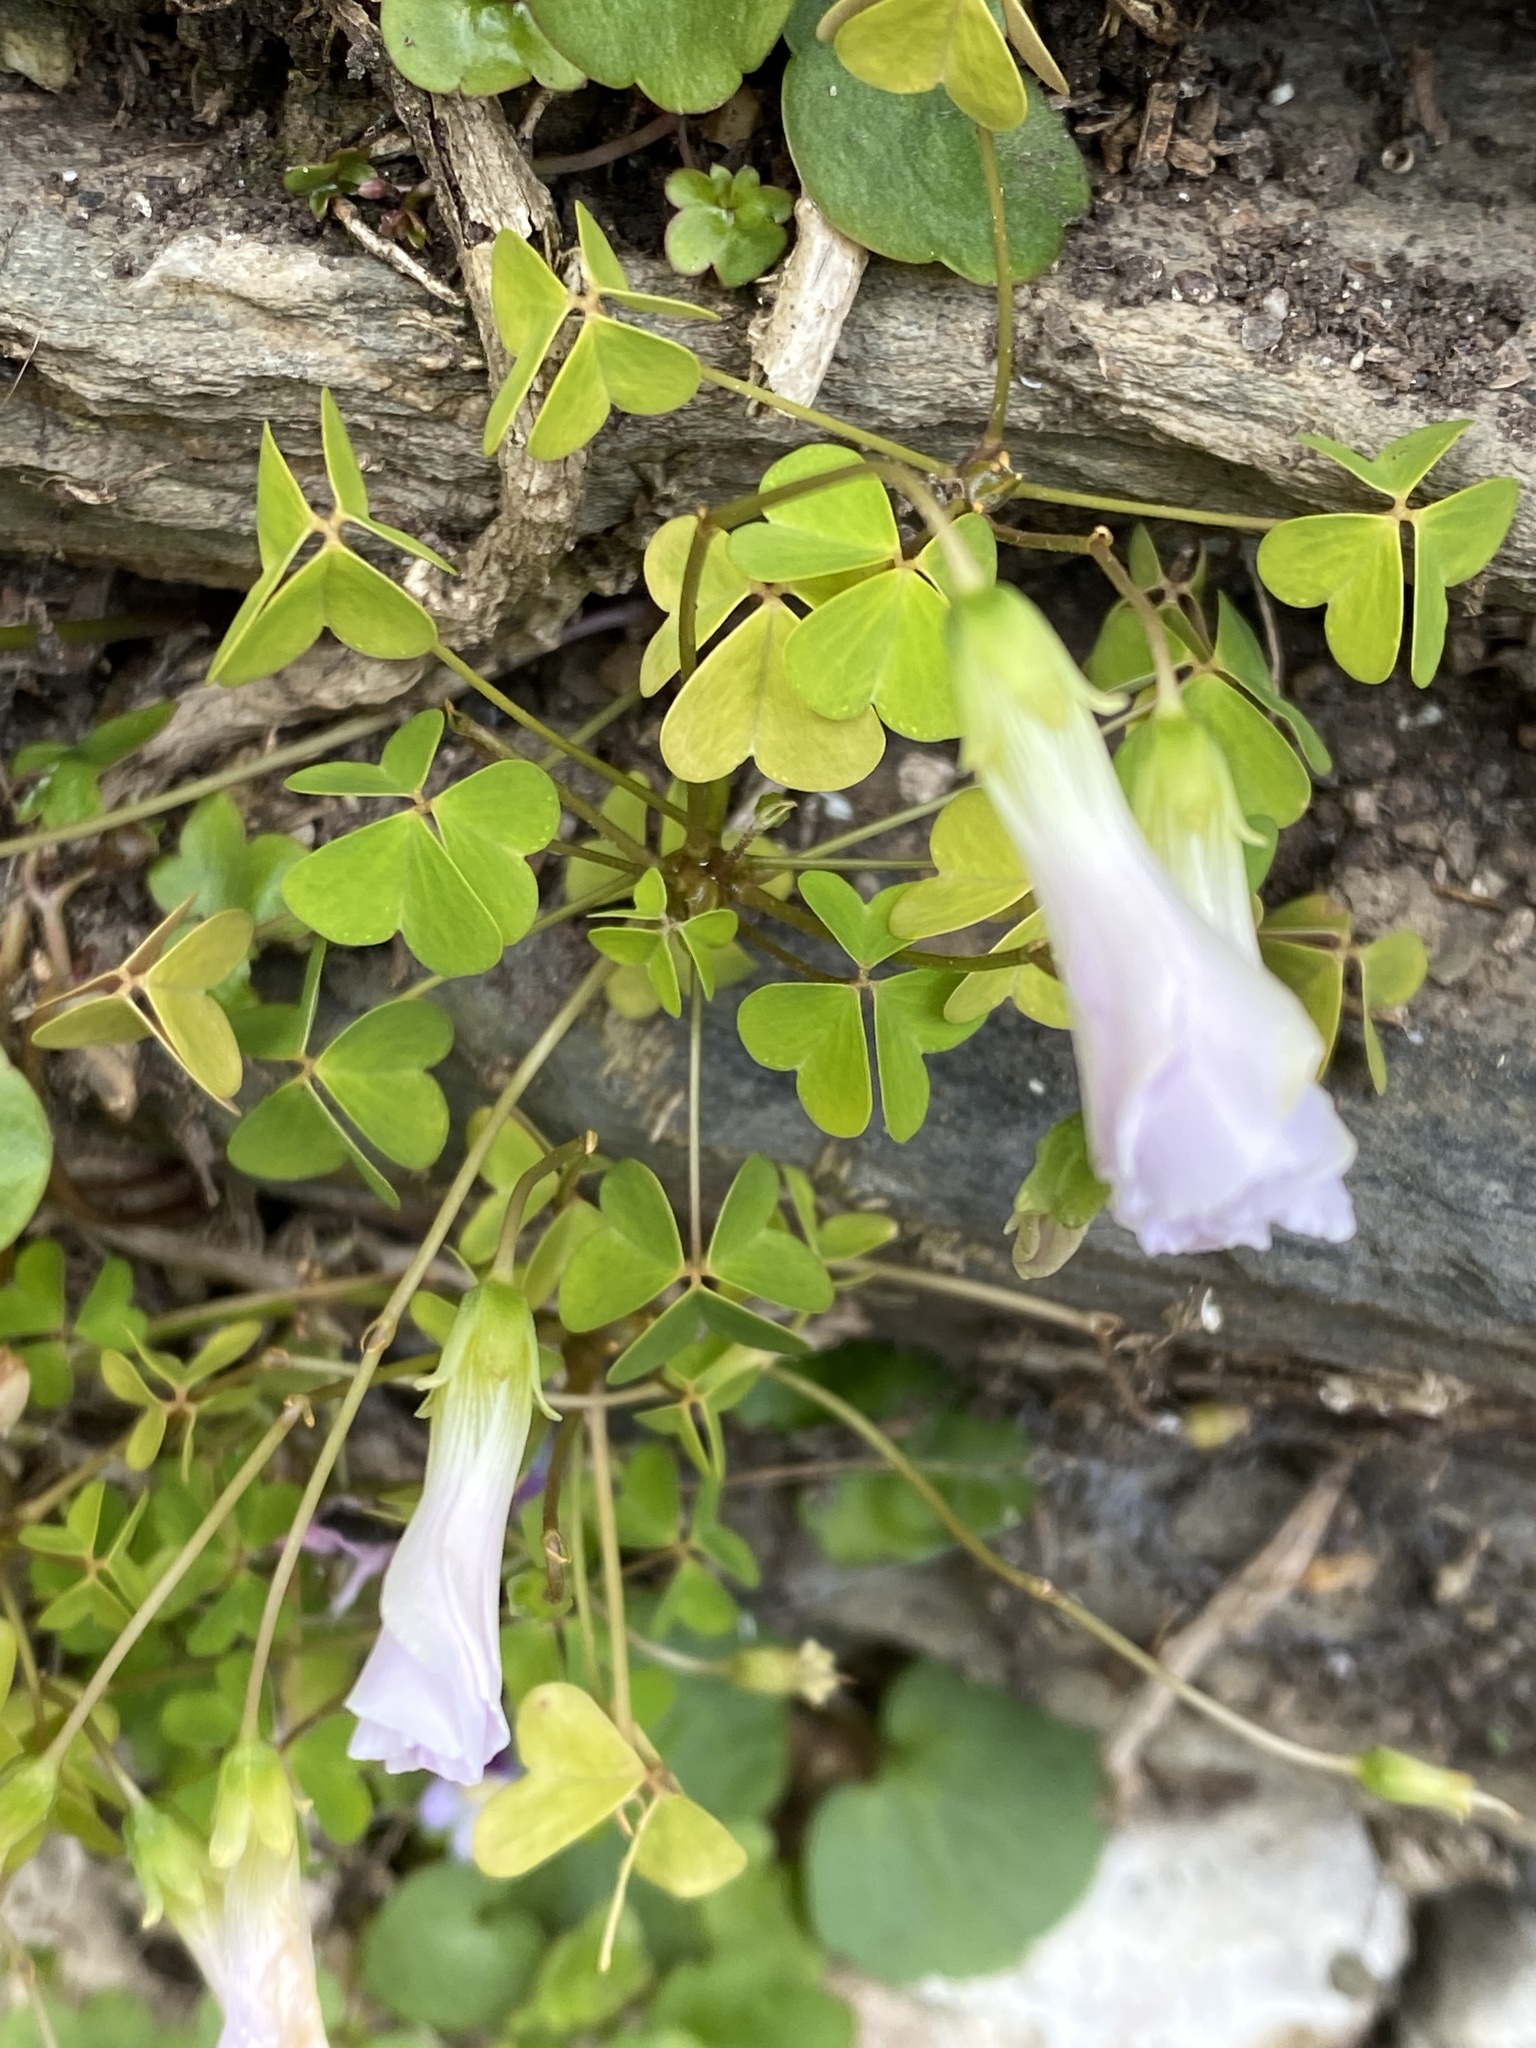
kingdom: Plantae
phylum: Tracheophyta
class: Magnoliopsida
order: Oxalidales
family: Oxalidaceae
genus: Oxalis
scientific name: Oxalis incarnata
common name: Pale pink-sorrel
